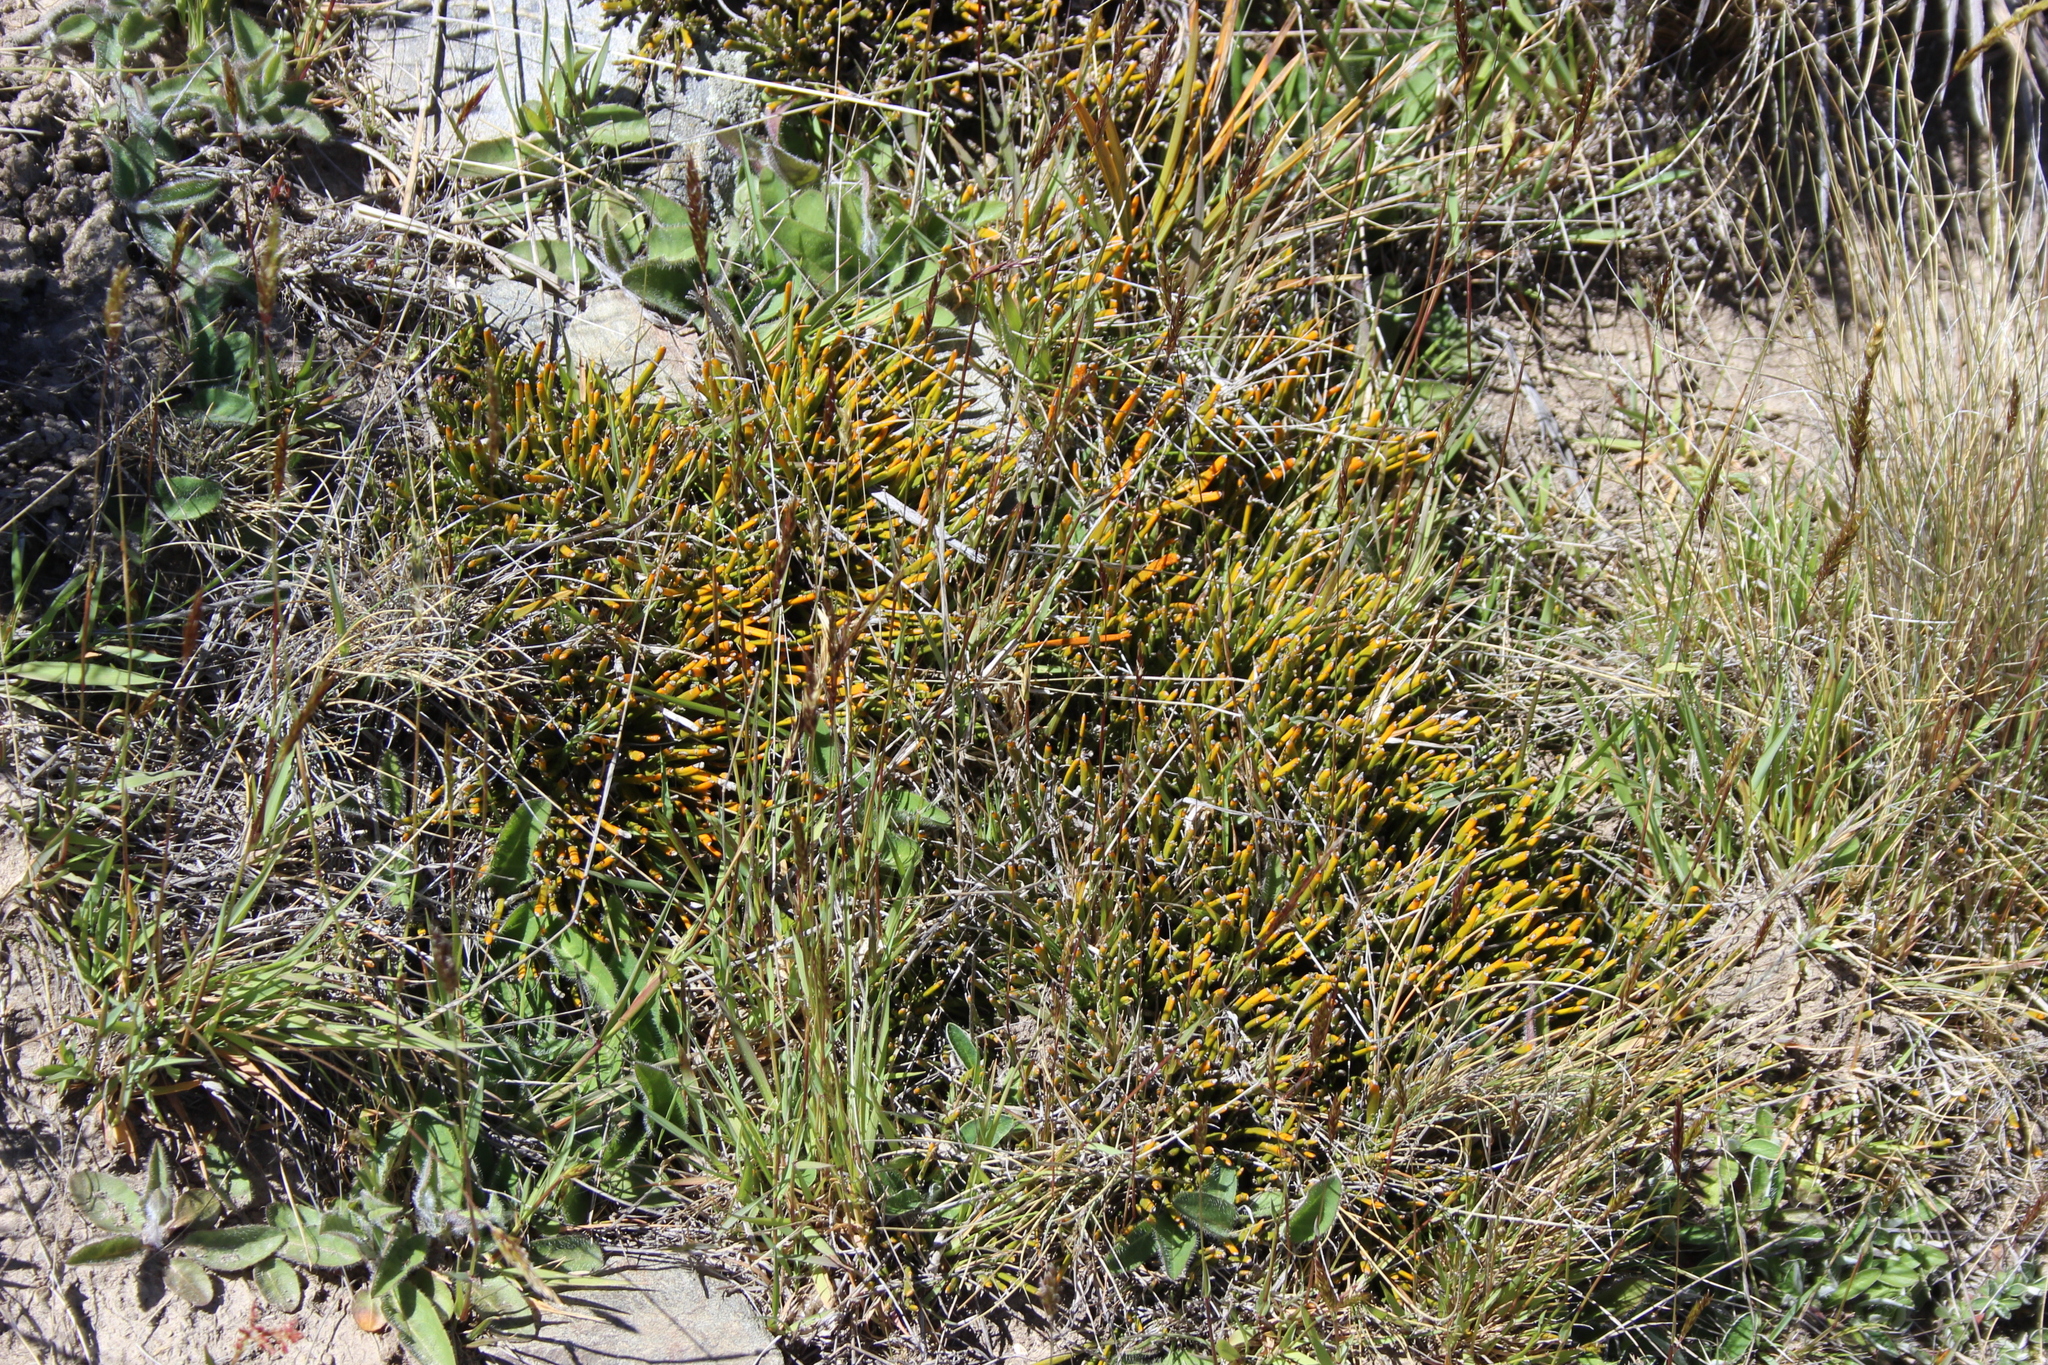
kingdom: Plantae
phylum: Tracheophyta
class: Magnoliopsida
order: Fabales
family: Fabaceae
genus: Carmichaelia
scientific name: Carmichaelia vexillata
